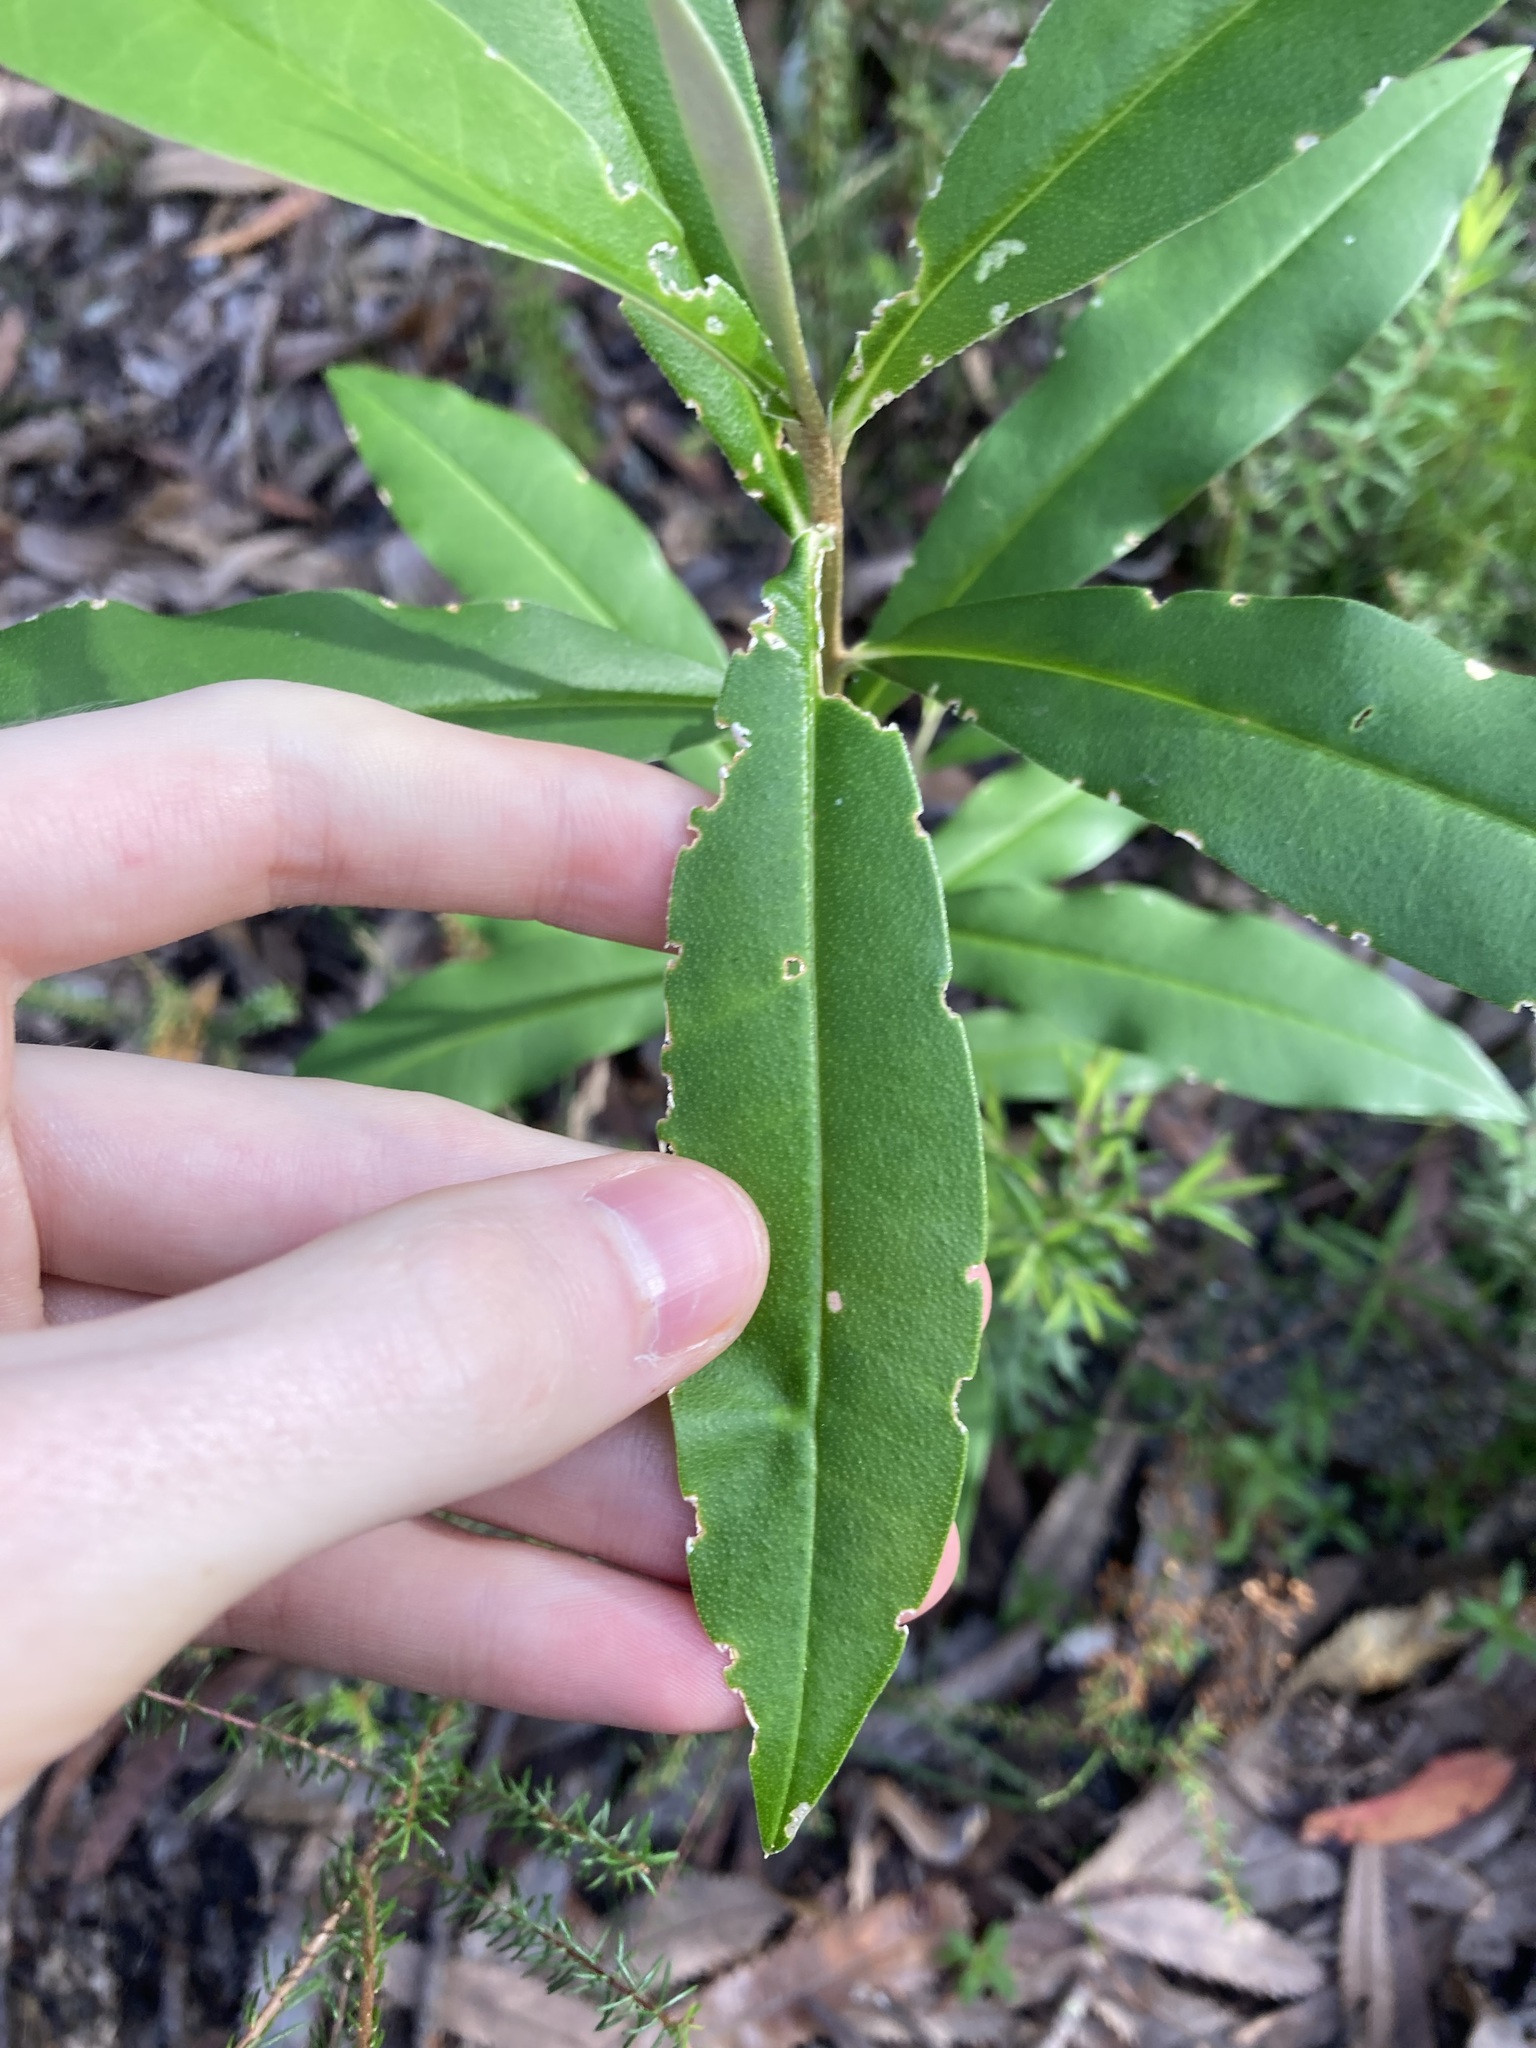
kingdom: Plantae
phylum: Tracheophyta
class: Magnoliopsida
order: Sapindales
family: Rutaceae
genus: Nematolepis
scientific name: Nematolepis squamea
